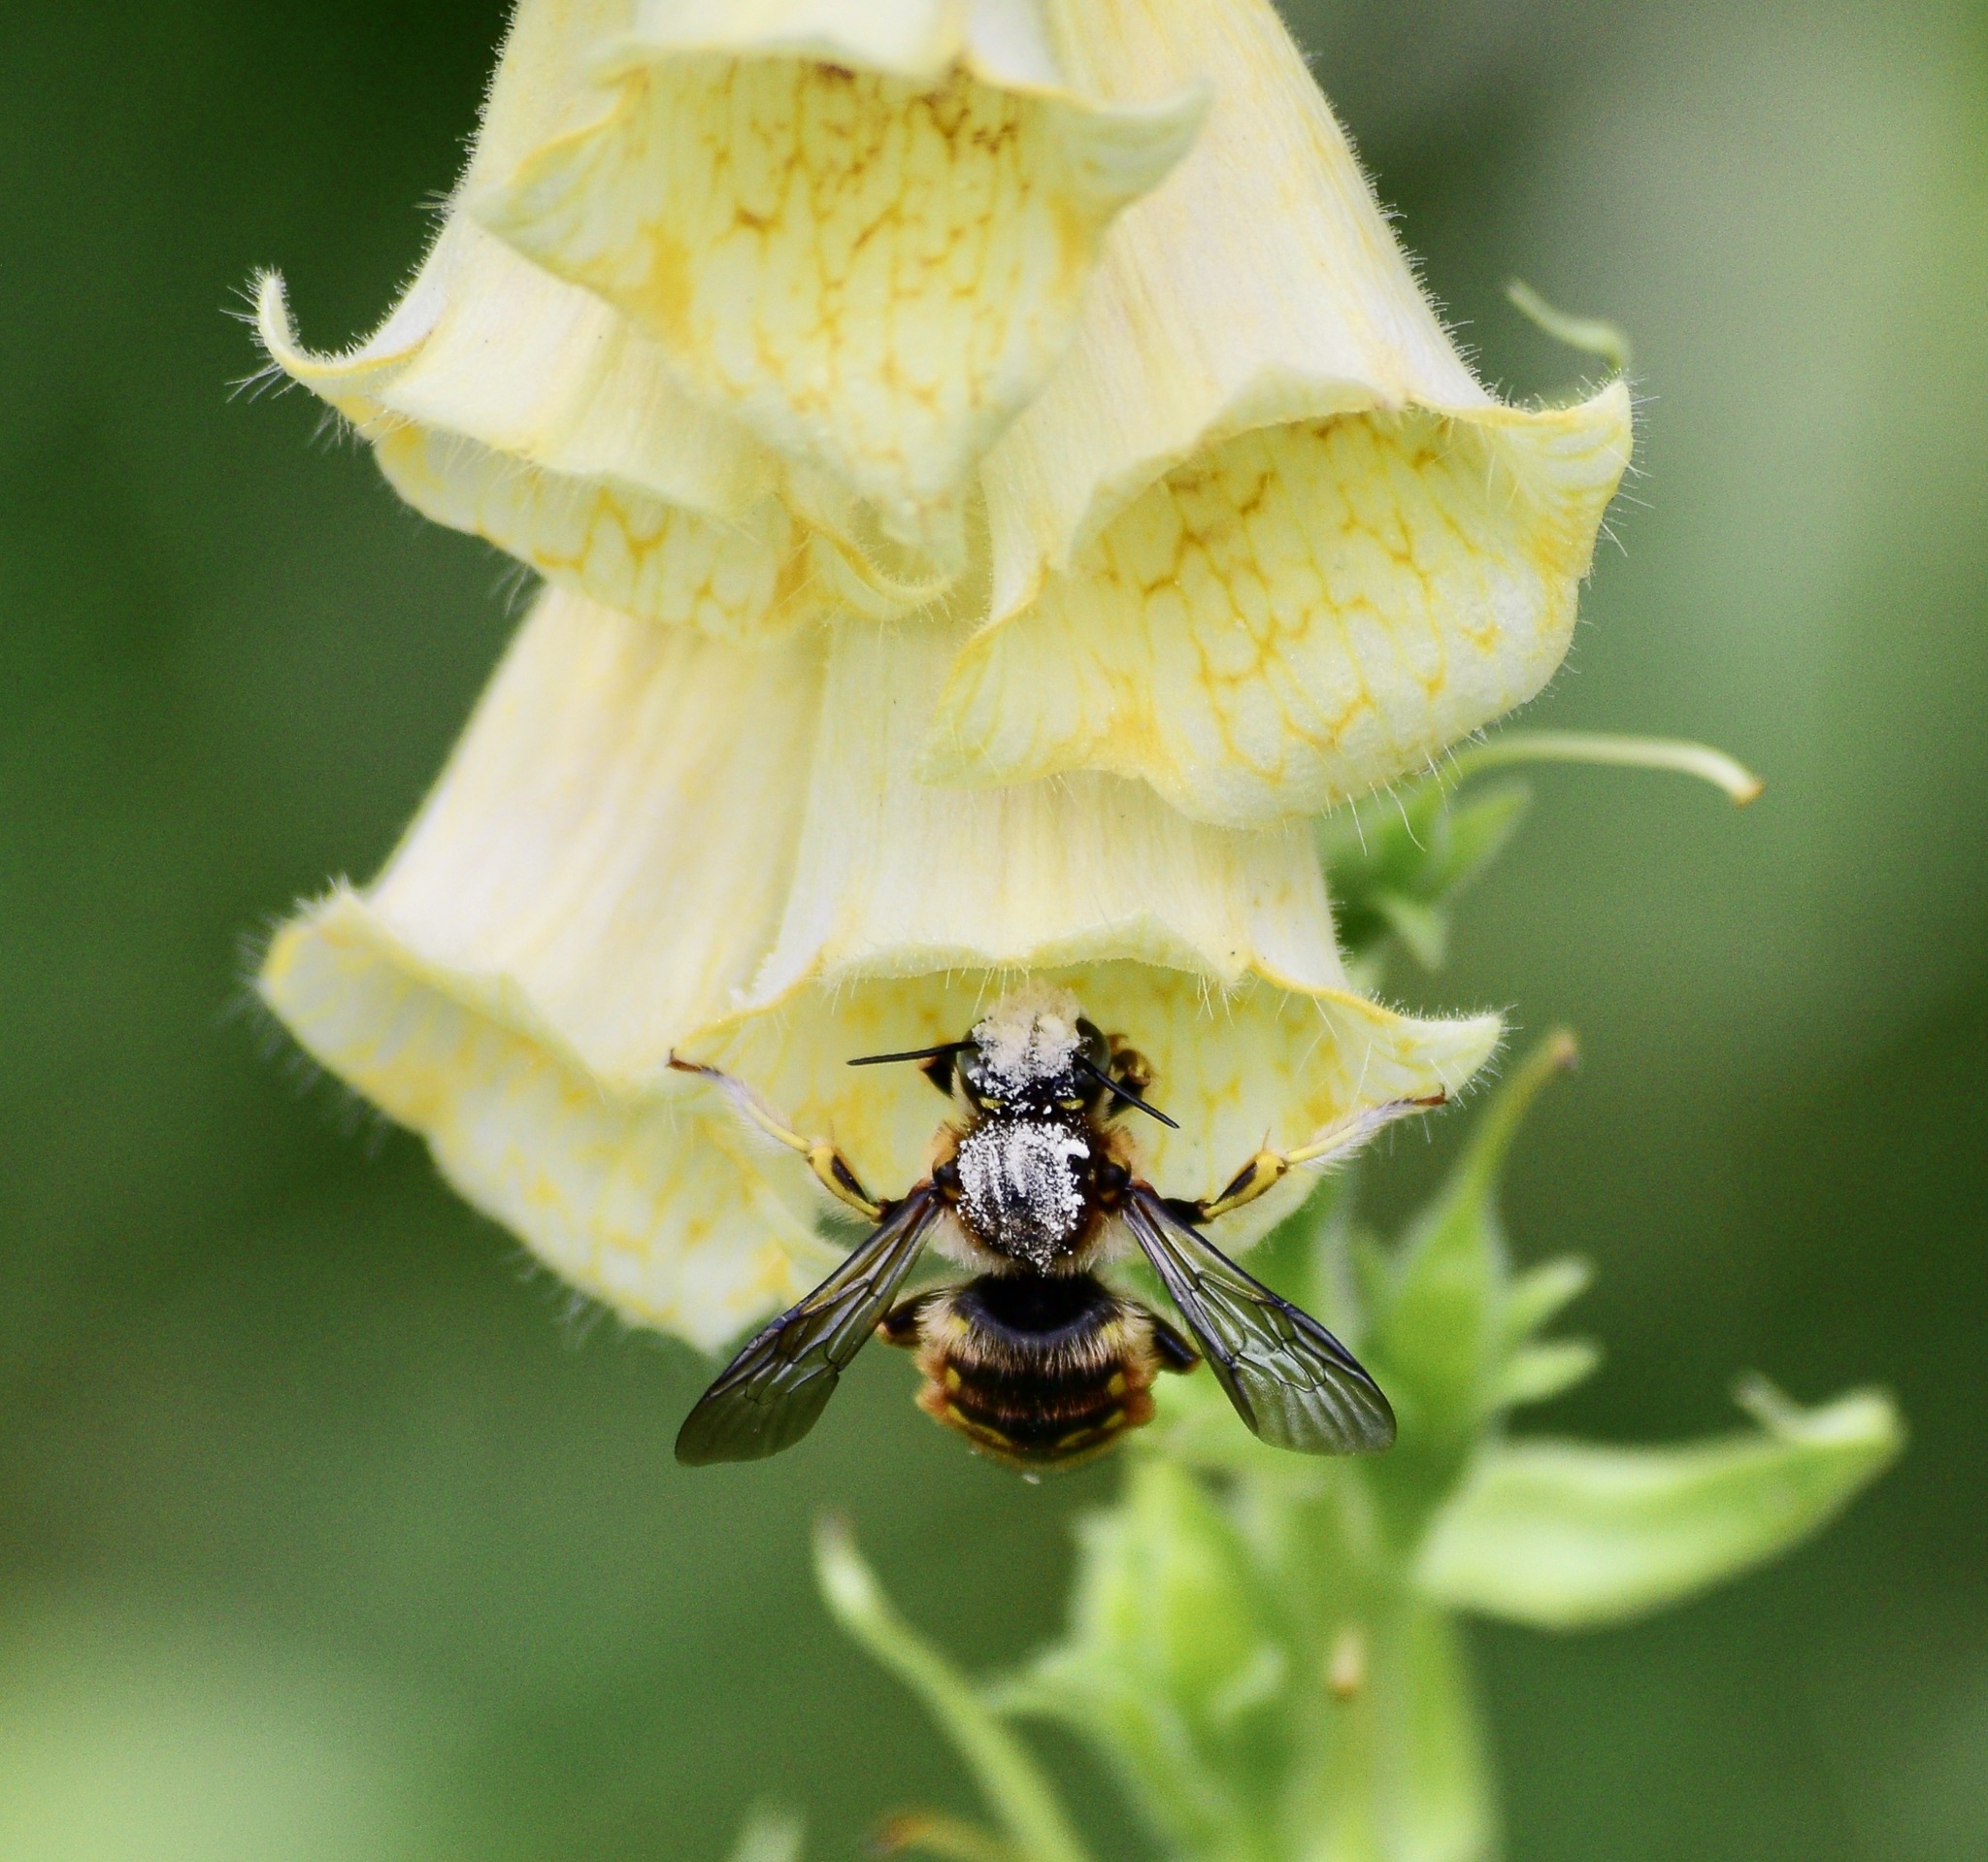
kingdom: Animalia
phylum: Arthropoda
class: Insecta
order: Hymenoptera
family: Megachilidae
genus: Anthidium
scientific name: Anthidium manicatum
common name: Wool carder bee
